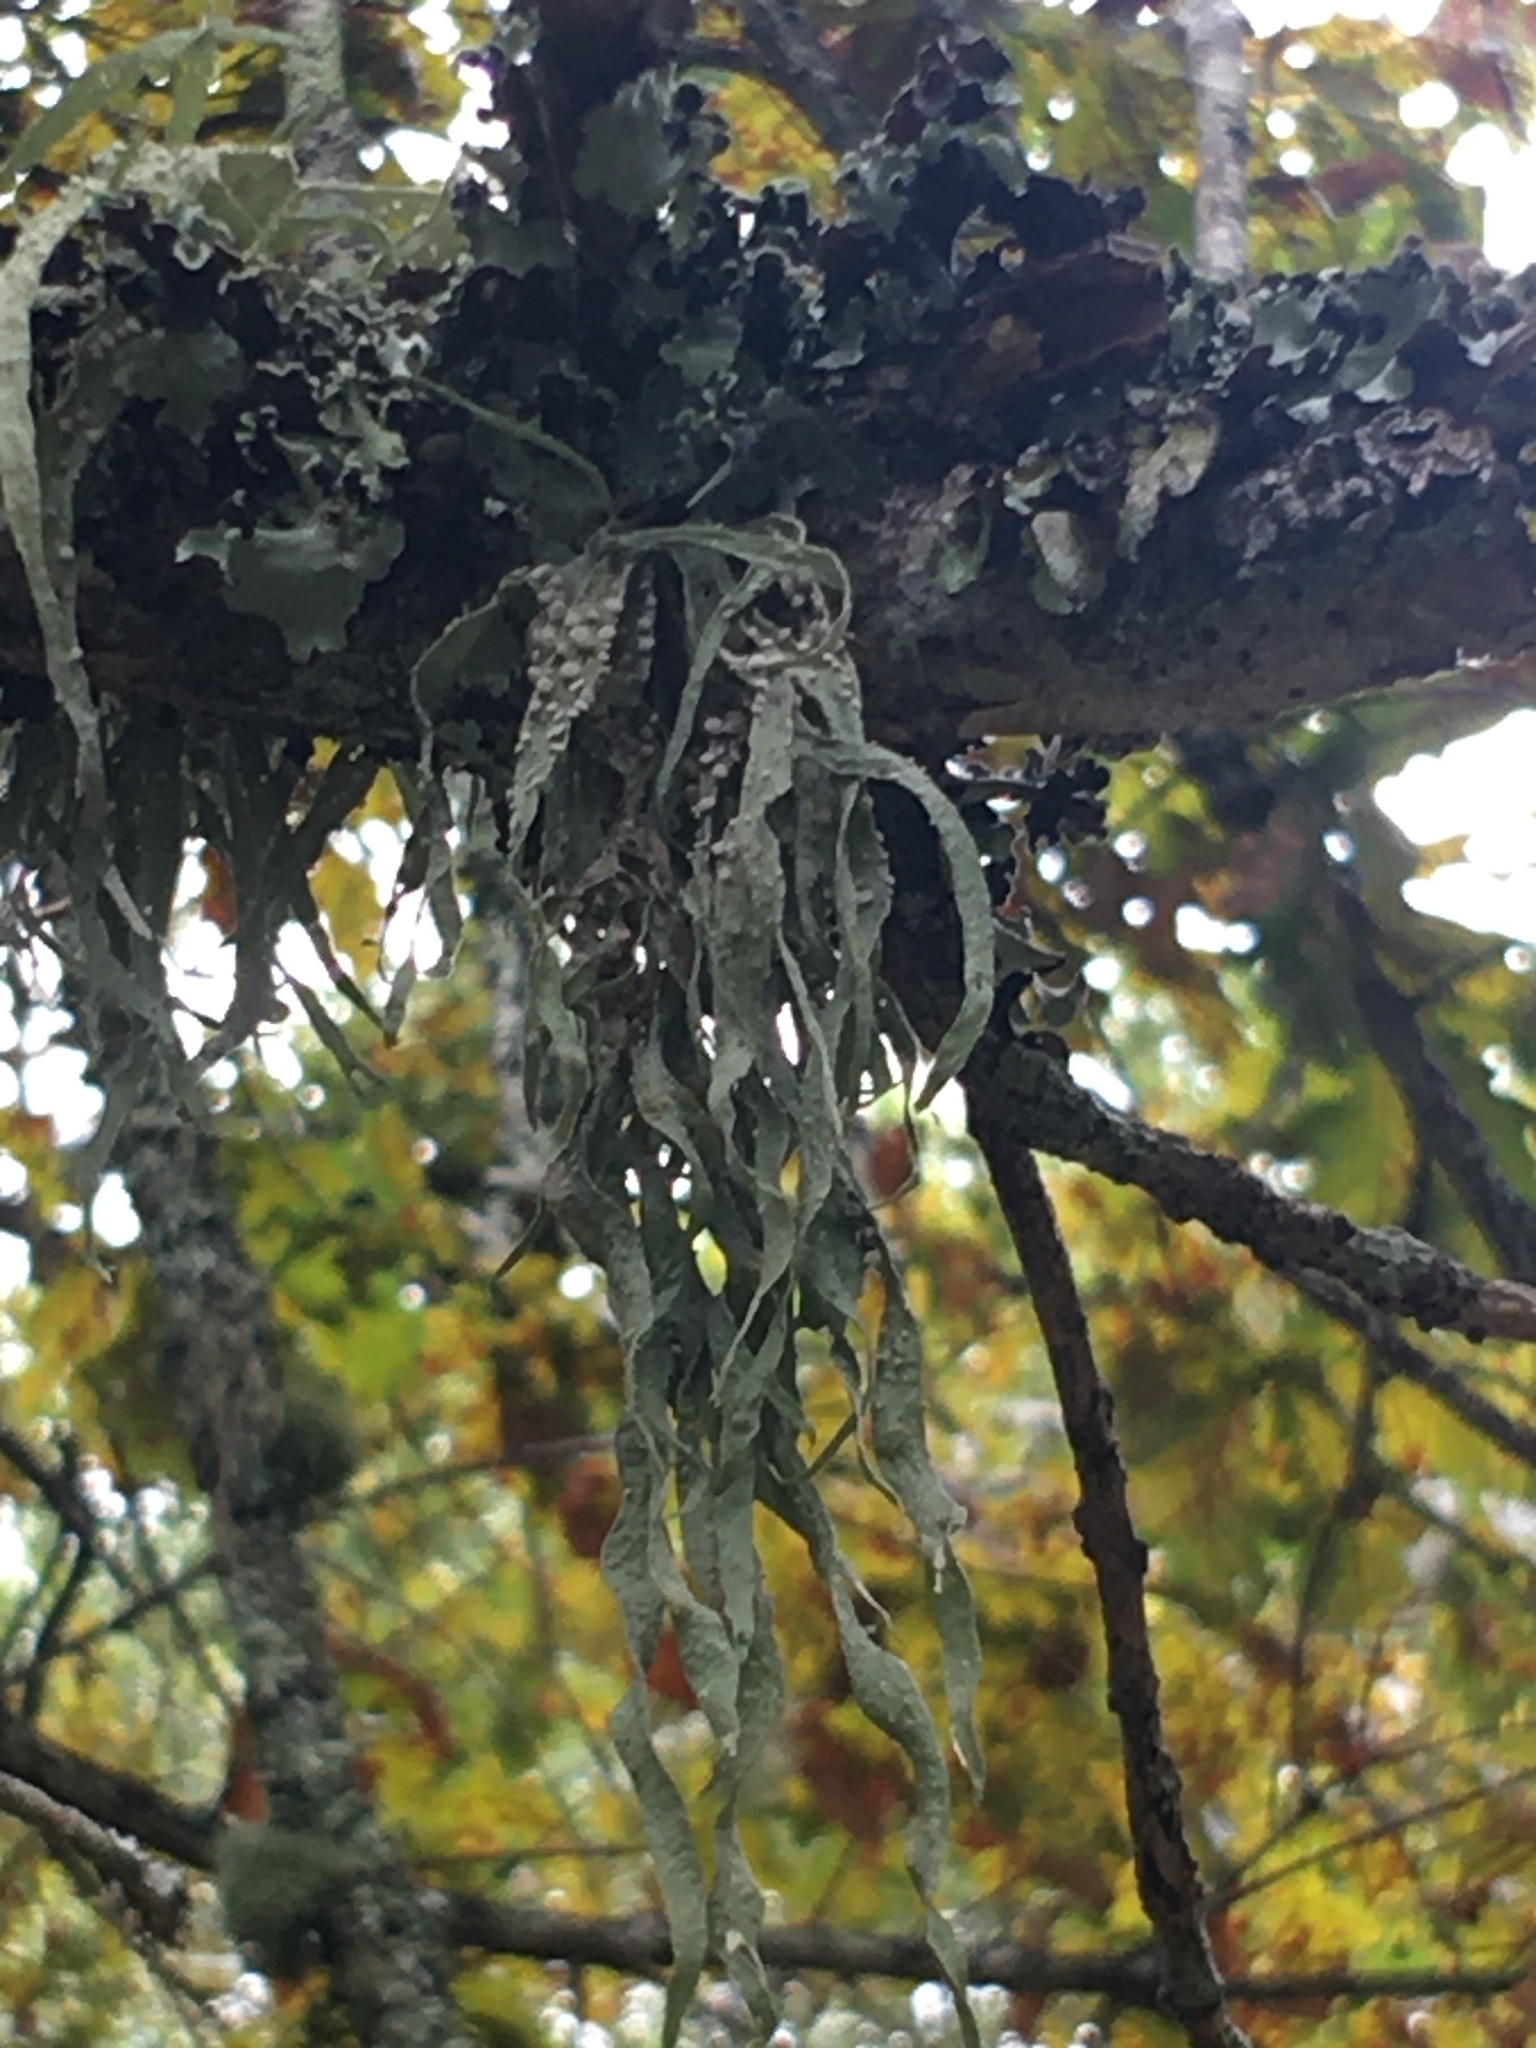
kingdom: Fungi
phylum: Ascomycota
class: Lecanoromycetes
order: Lecanorales
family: Ramalinaceae
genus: Ramalina
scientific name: Ramalina celastri
